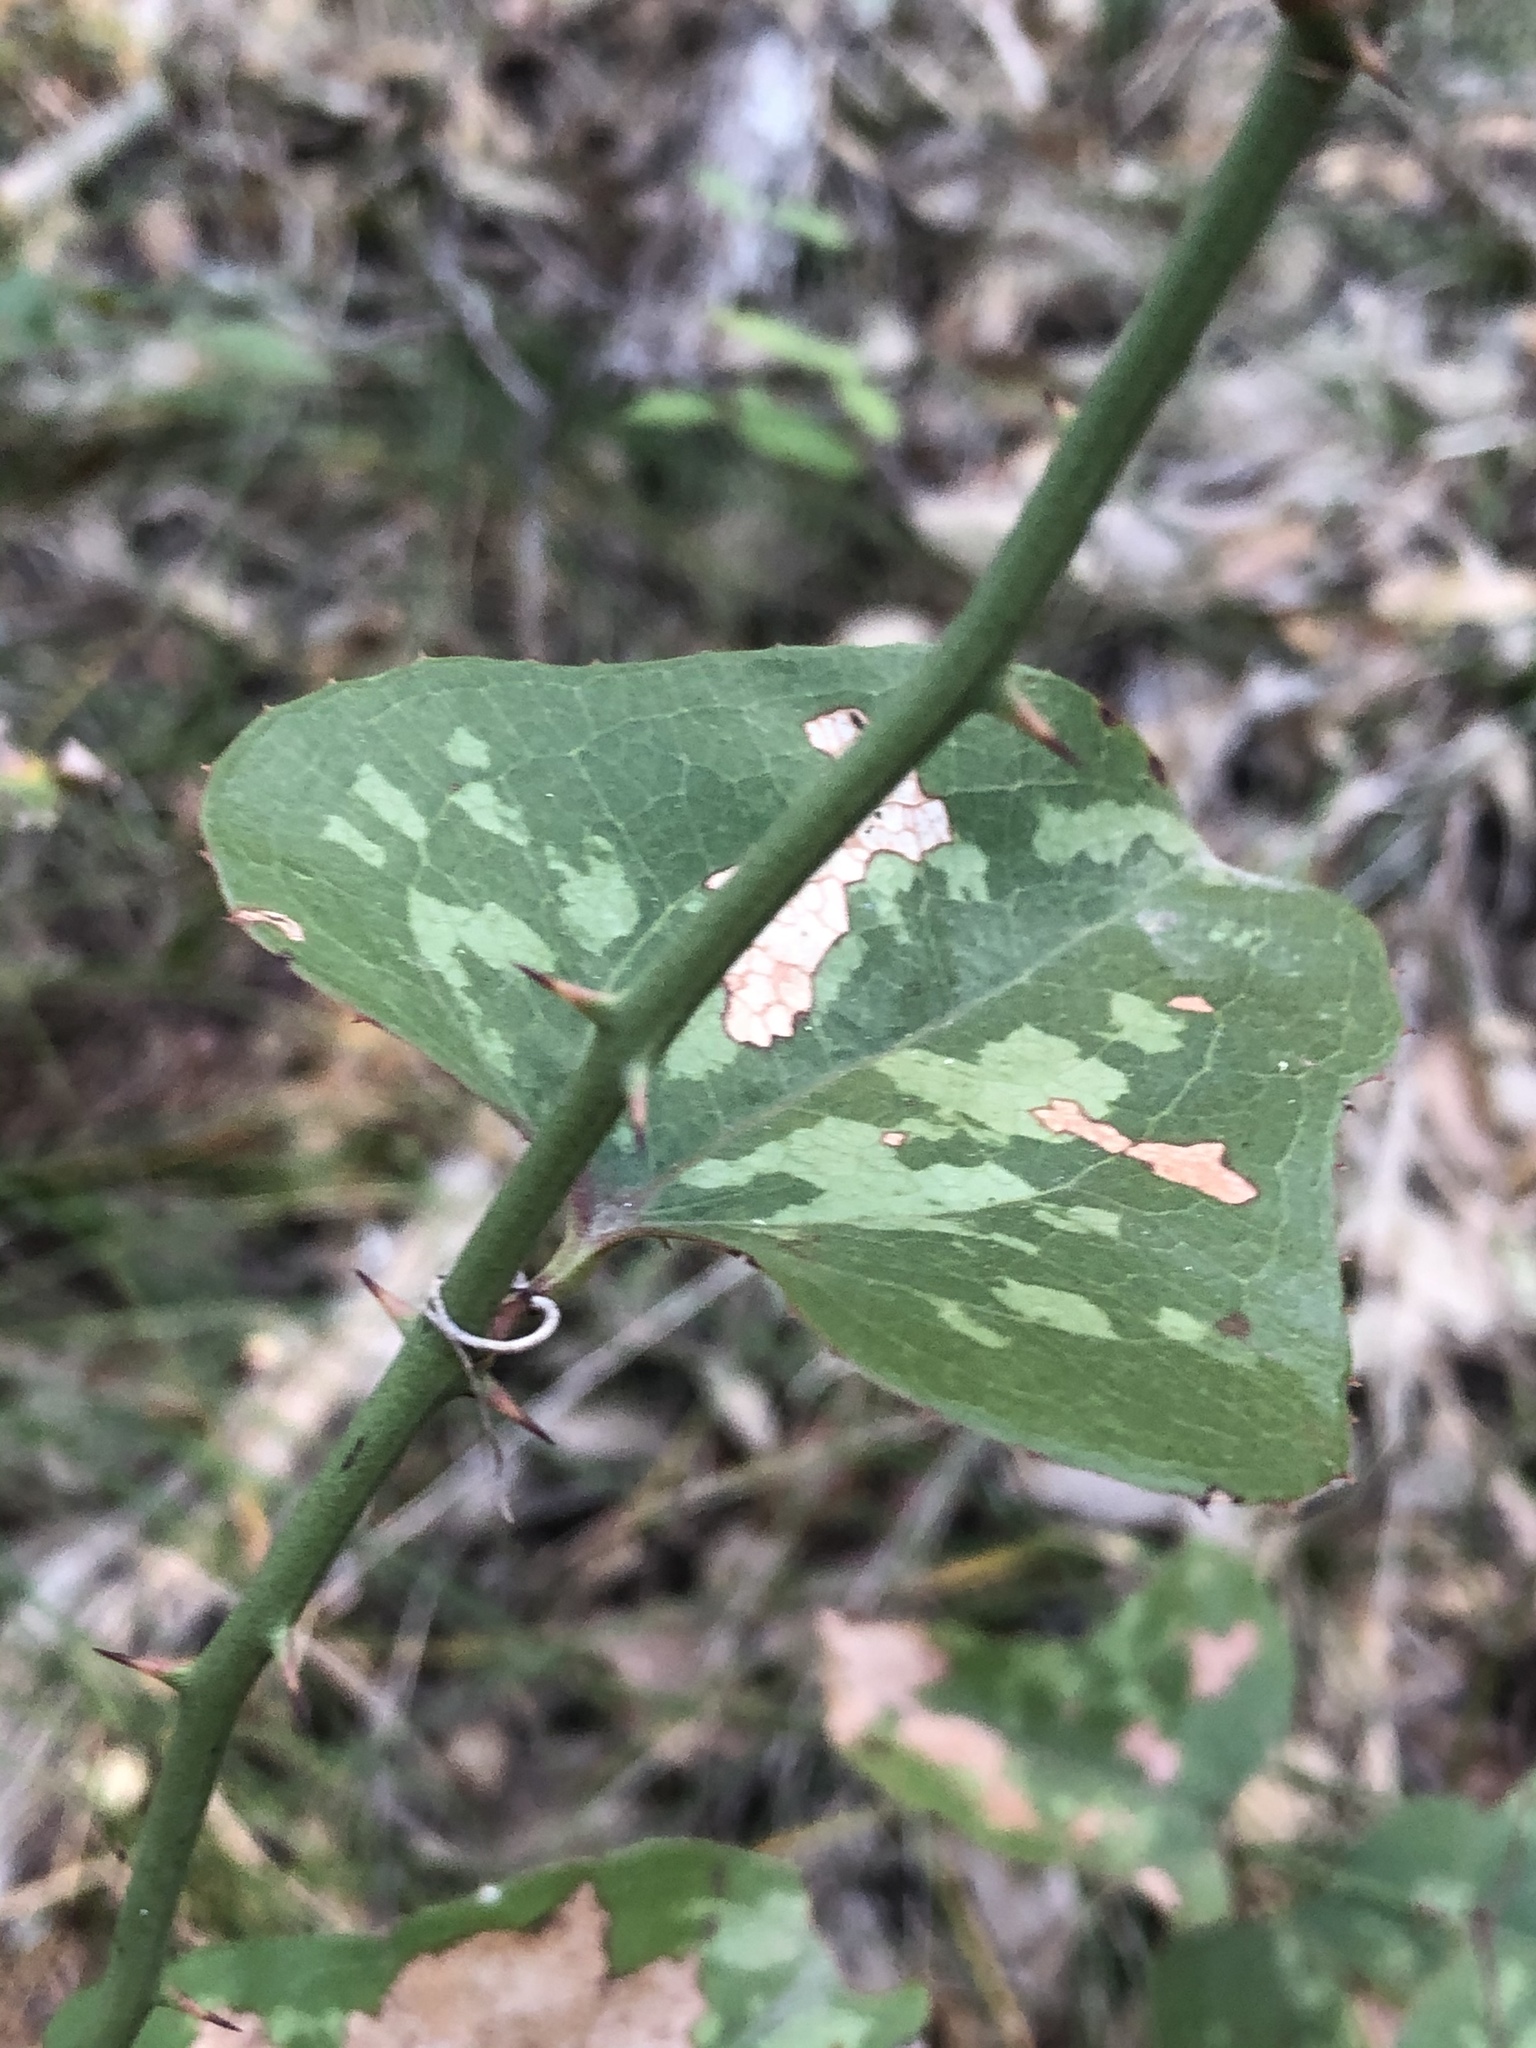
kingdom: Plantae
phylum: Tracheophyta
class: Liliopsida
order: Liliales
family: Smilacaceae
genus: Smilax
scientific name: Smilax bona-nox
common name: Catbrier
